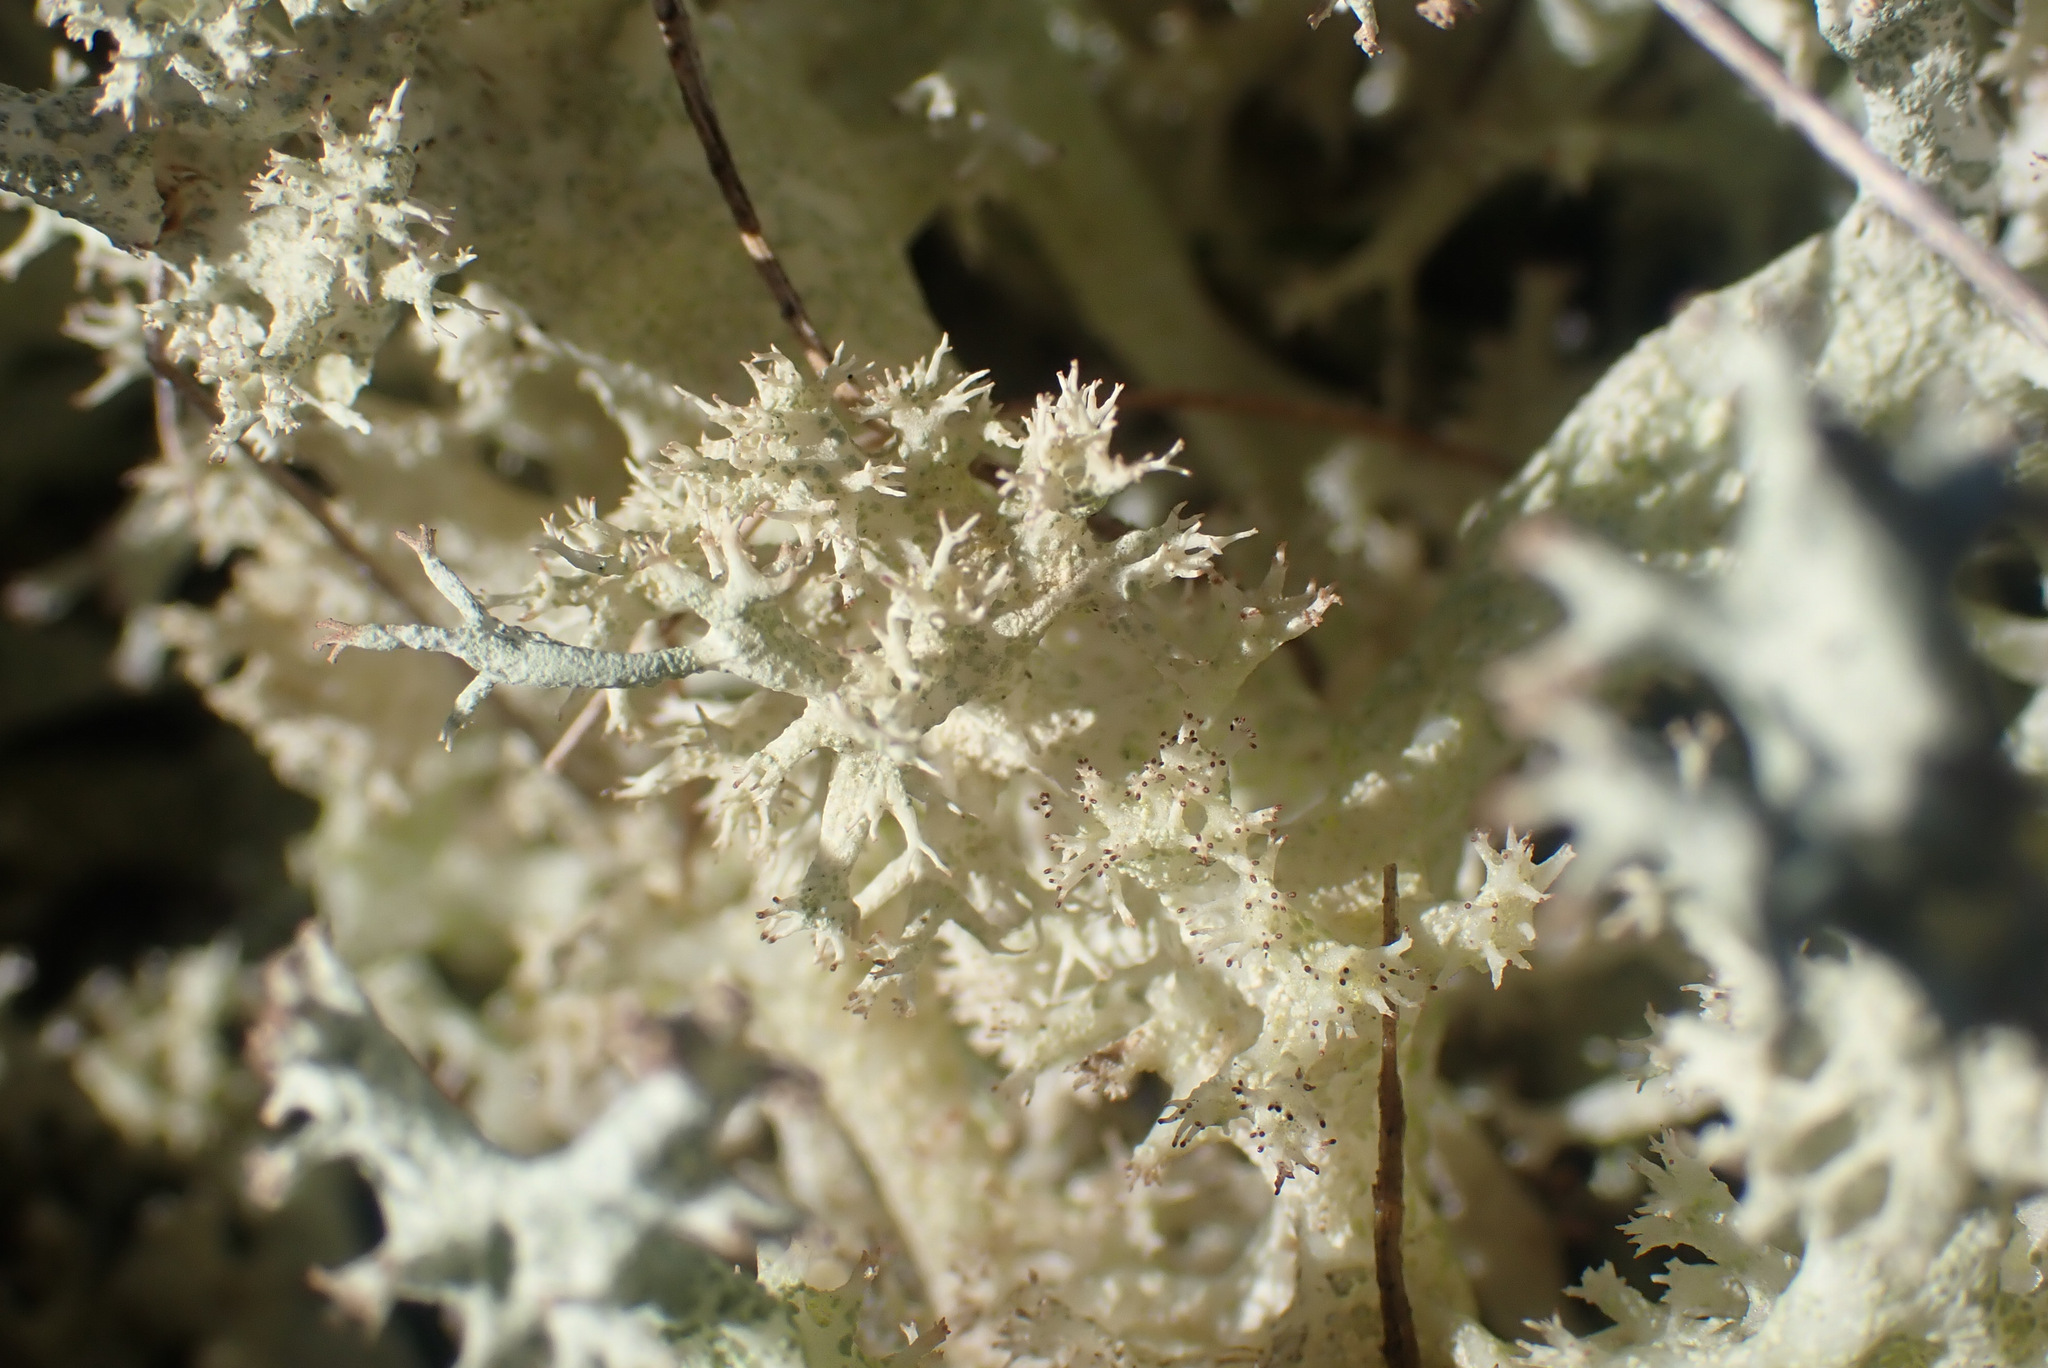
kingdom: Fungi
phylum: Ascomycota
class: Lecanoromycetes
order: Lecanorales
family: Cladoniaceae
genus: Cladonia
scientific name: Cladonia portentosa
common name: Reindeer lichen
